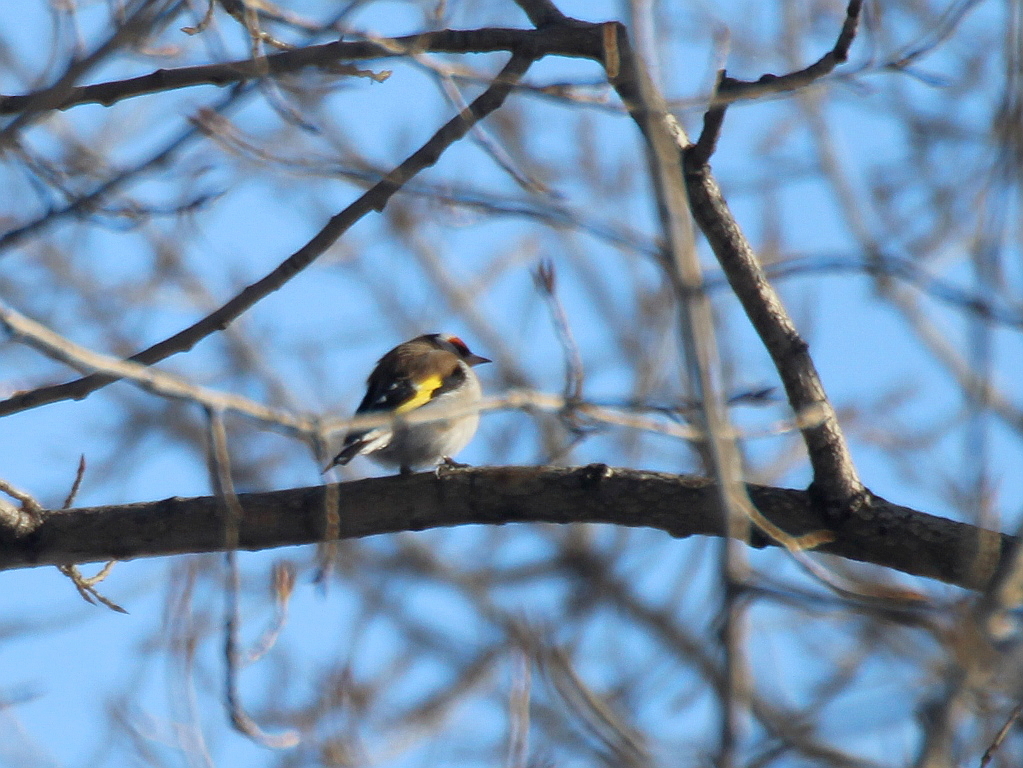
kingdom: Animalia
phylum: Chordata
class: Aves
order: Passeriformes
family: Fringillidae
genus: Carduelis
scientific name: Carduelis carduelis
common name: European goldfinch
